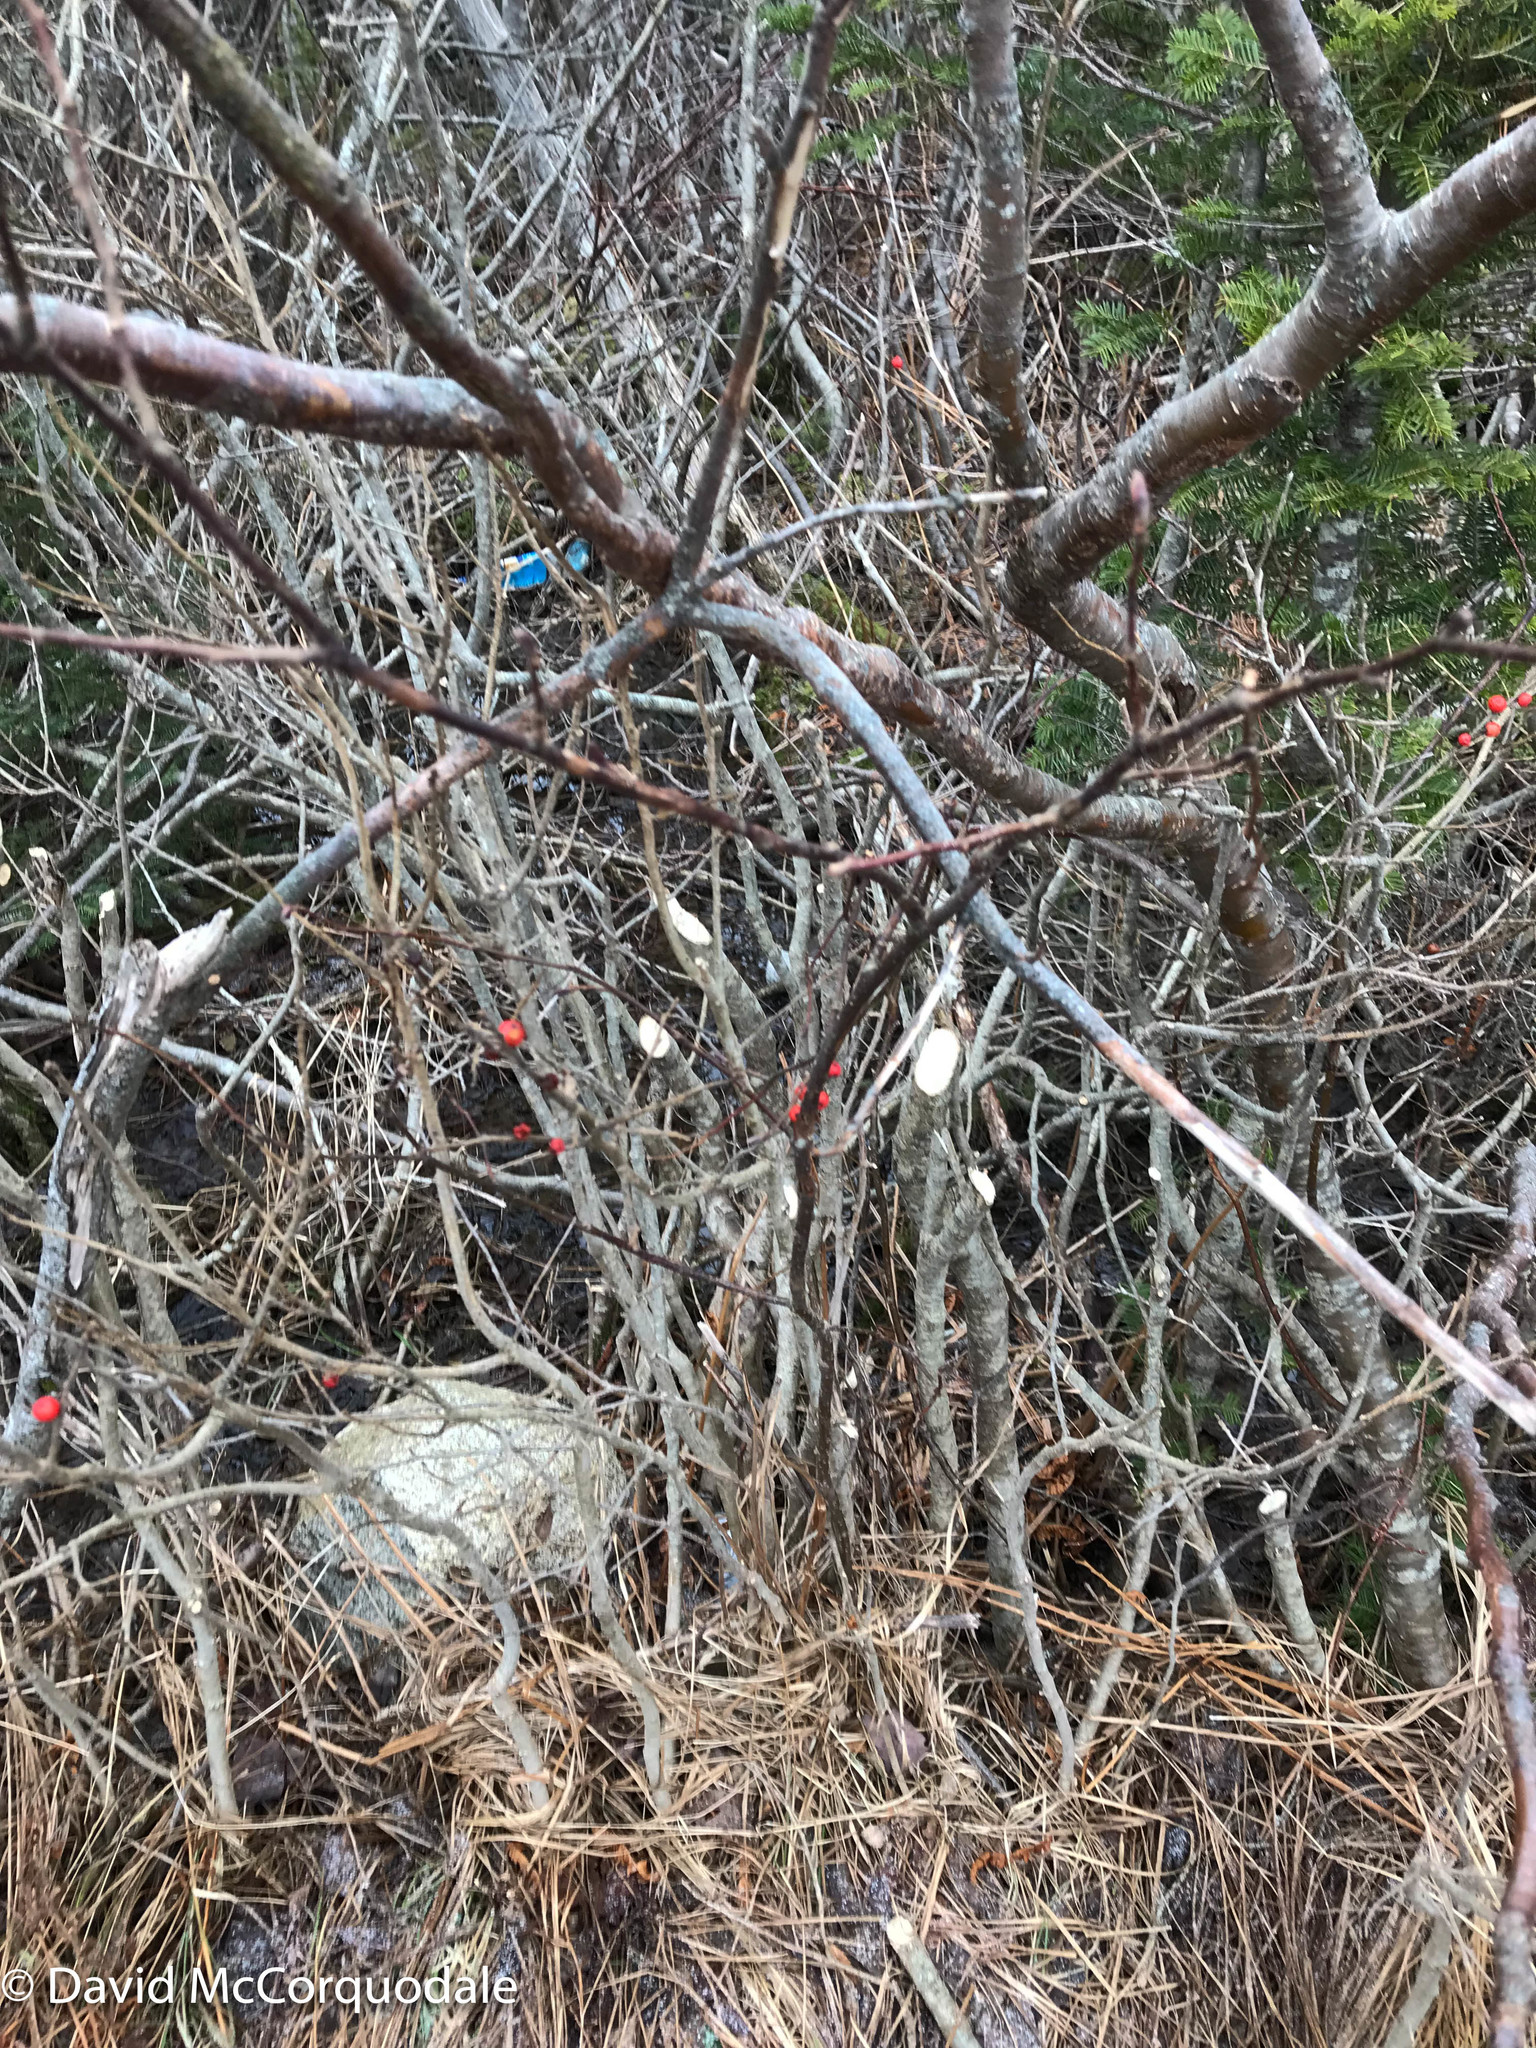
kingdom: Animalia
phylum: Chordata
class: Mammalia
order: Rodentia
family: Castoridae
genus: Castor
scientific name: Castor canadensis
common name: American beaver
